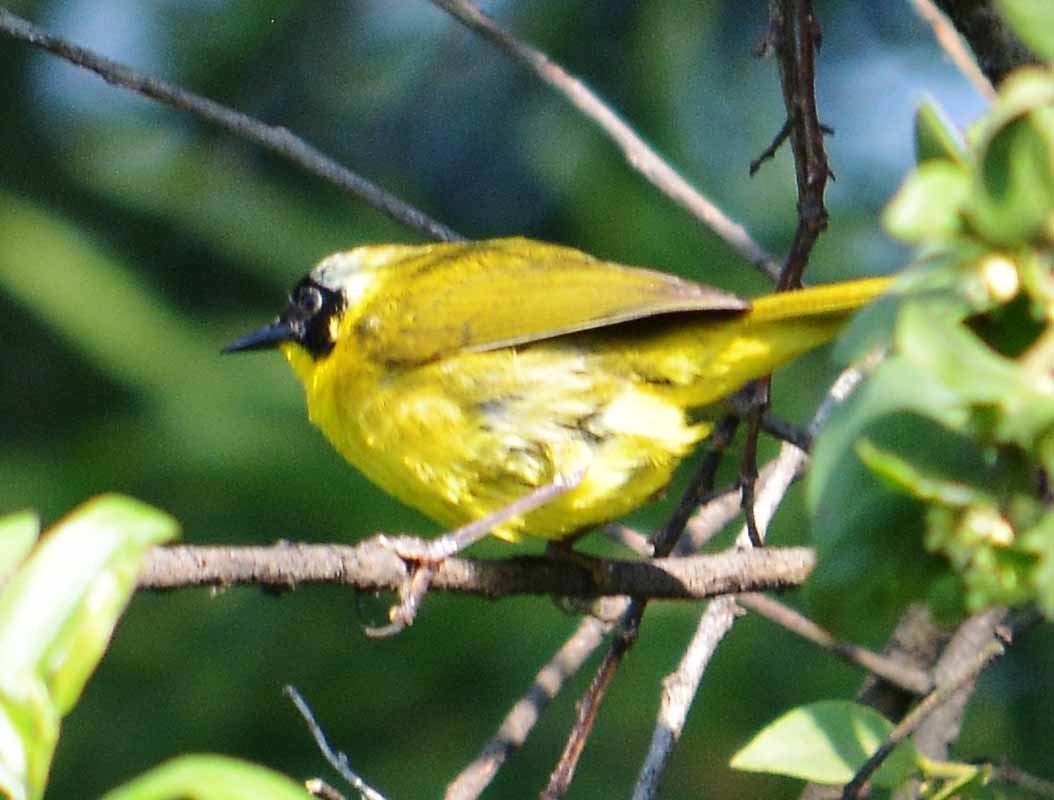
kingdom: Animalia
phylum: Chordata
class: Aves
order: Passeriformes
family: Parulidae
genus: Geothlypis
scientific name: Geothlypis trichas
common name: Common yellowthroat
